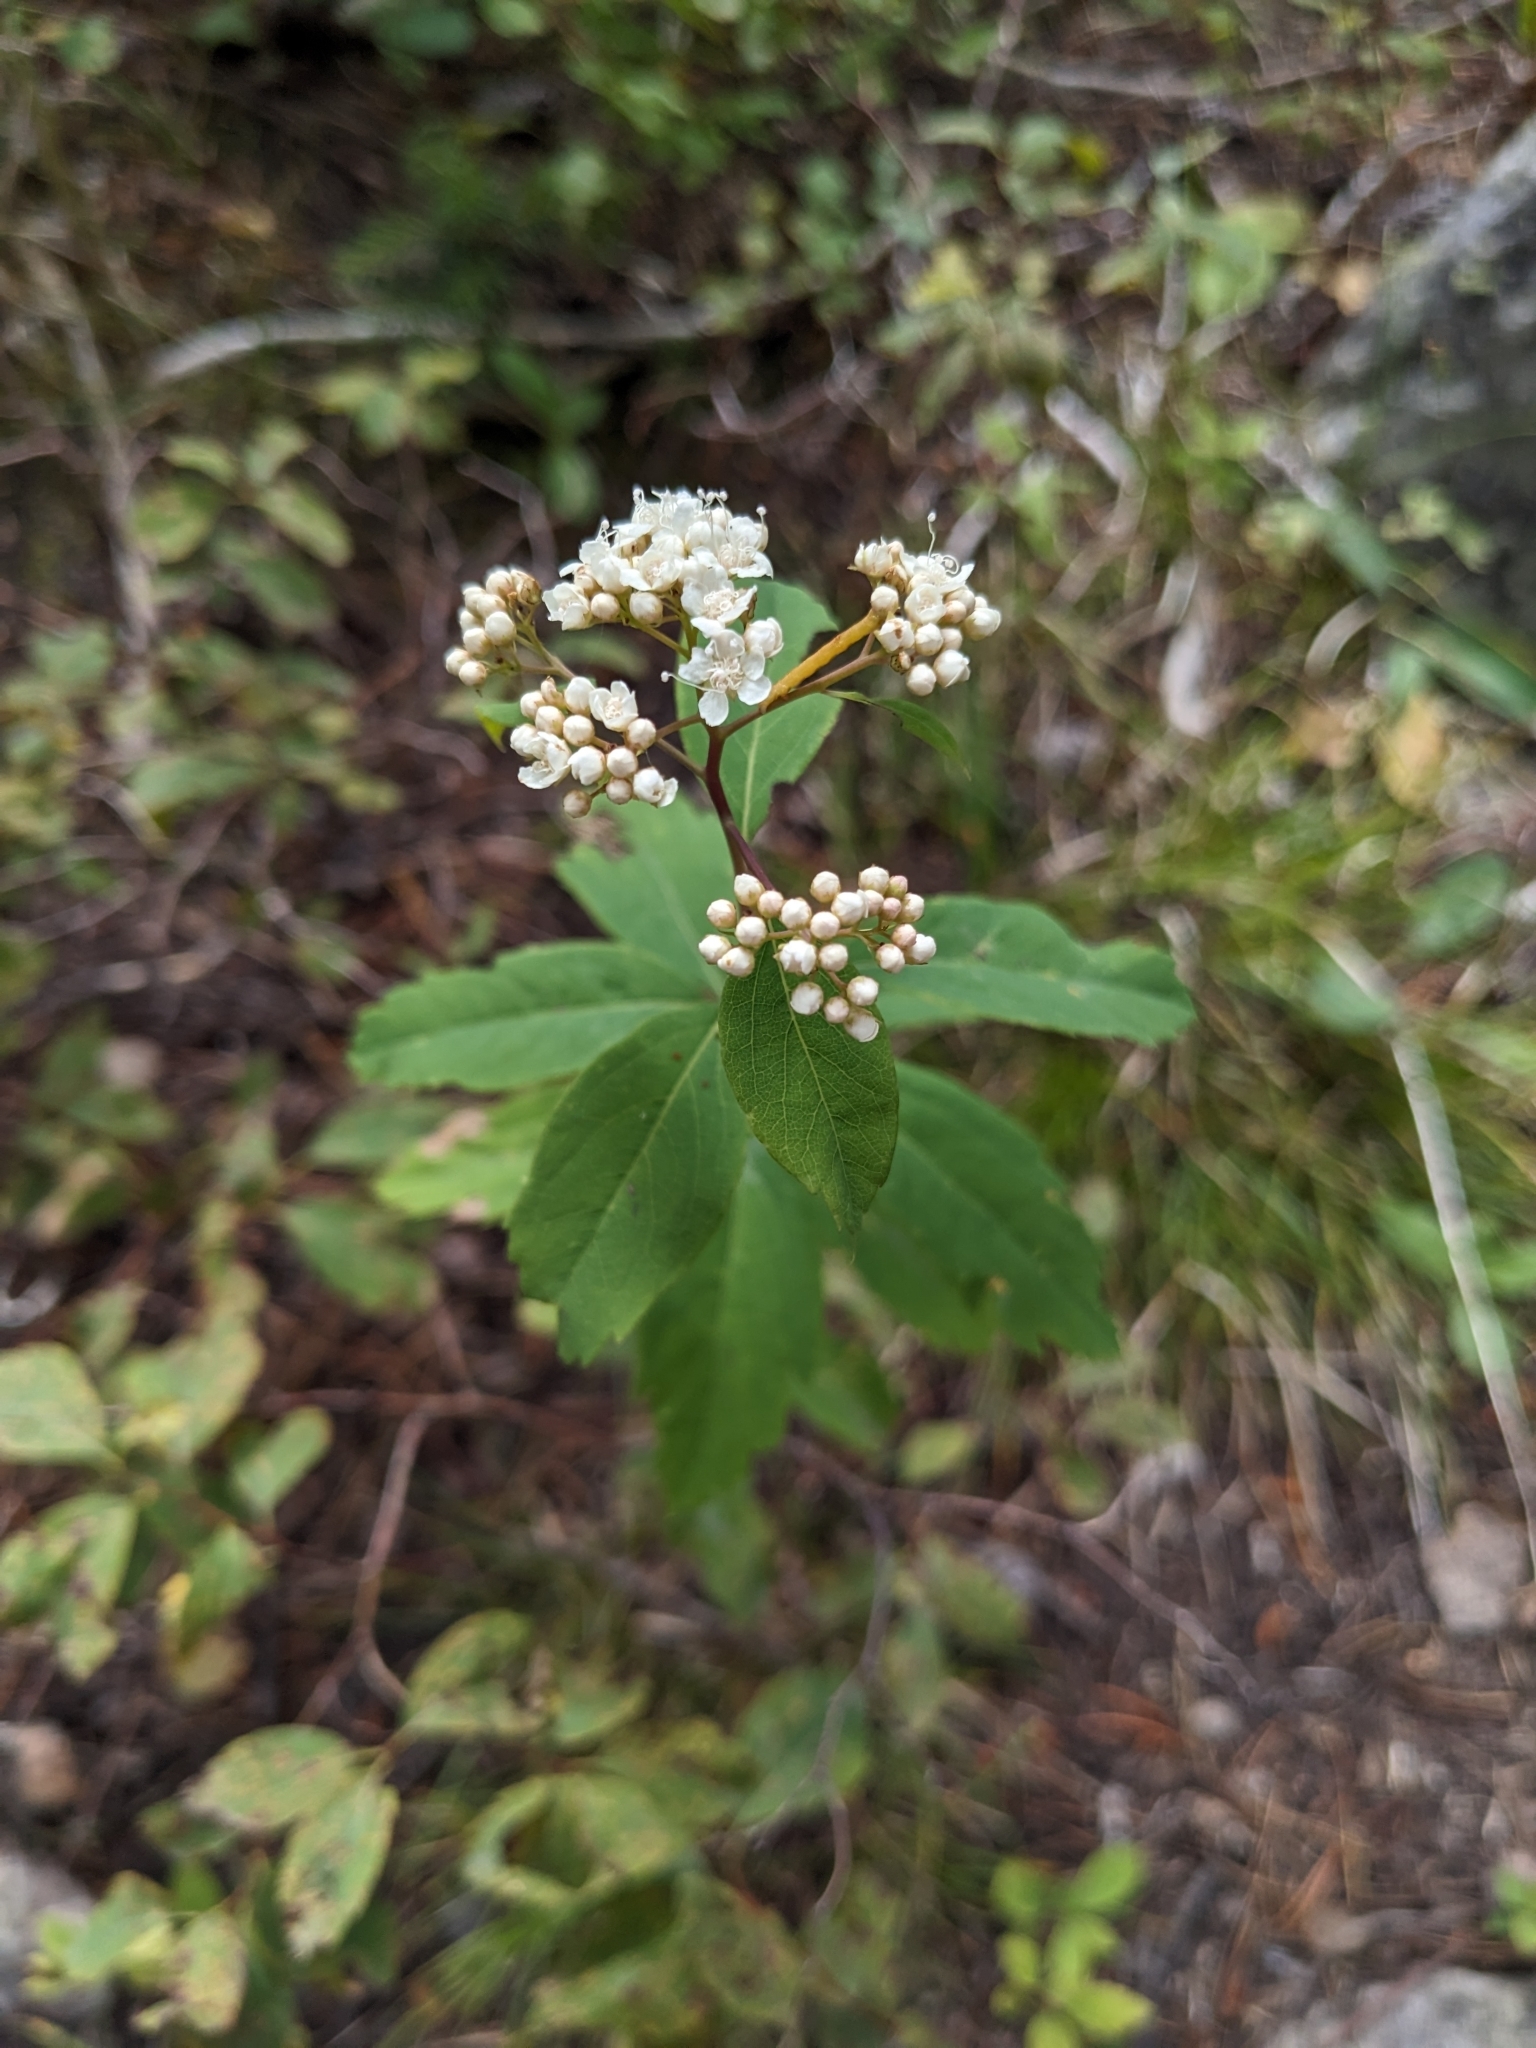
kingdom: Plantae
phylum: Tracheophyta
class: Magnoliopsida
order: Rosales
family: Rosaceae
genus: Spiraea
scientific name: Spiraea lucida
